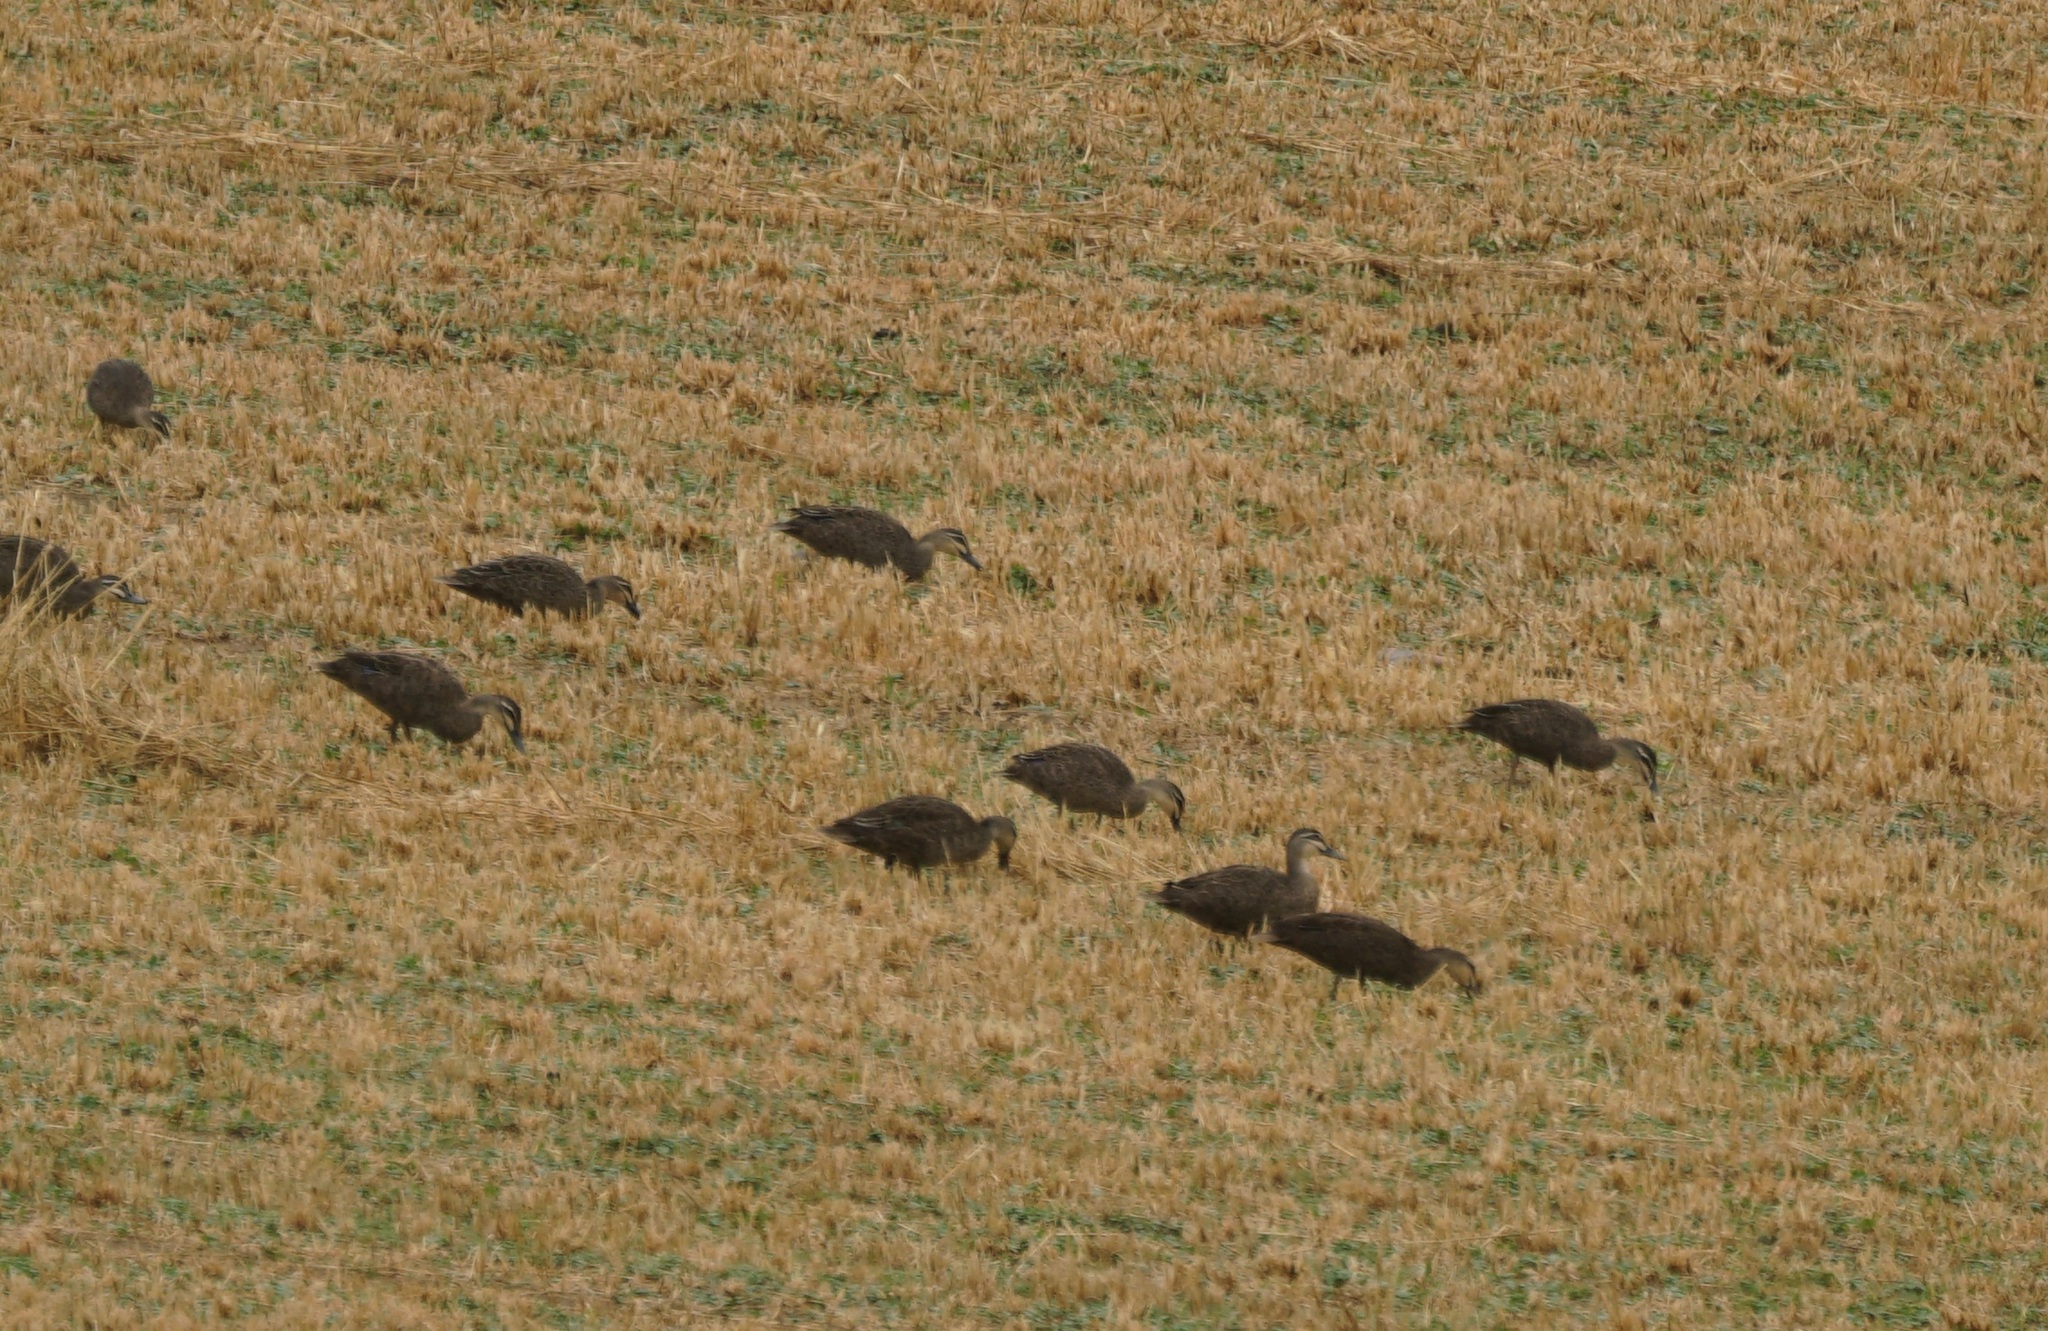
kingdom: Animalia
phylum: Chordata
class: Aves
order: Anseriformes
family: Anatidae
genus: Anas
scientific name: Anas superciliosa
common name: Pacific black duck
